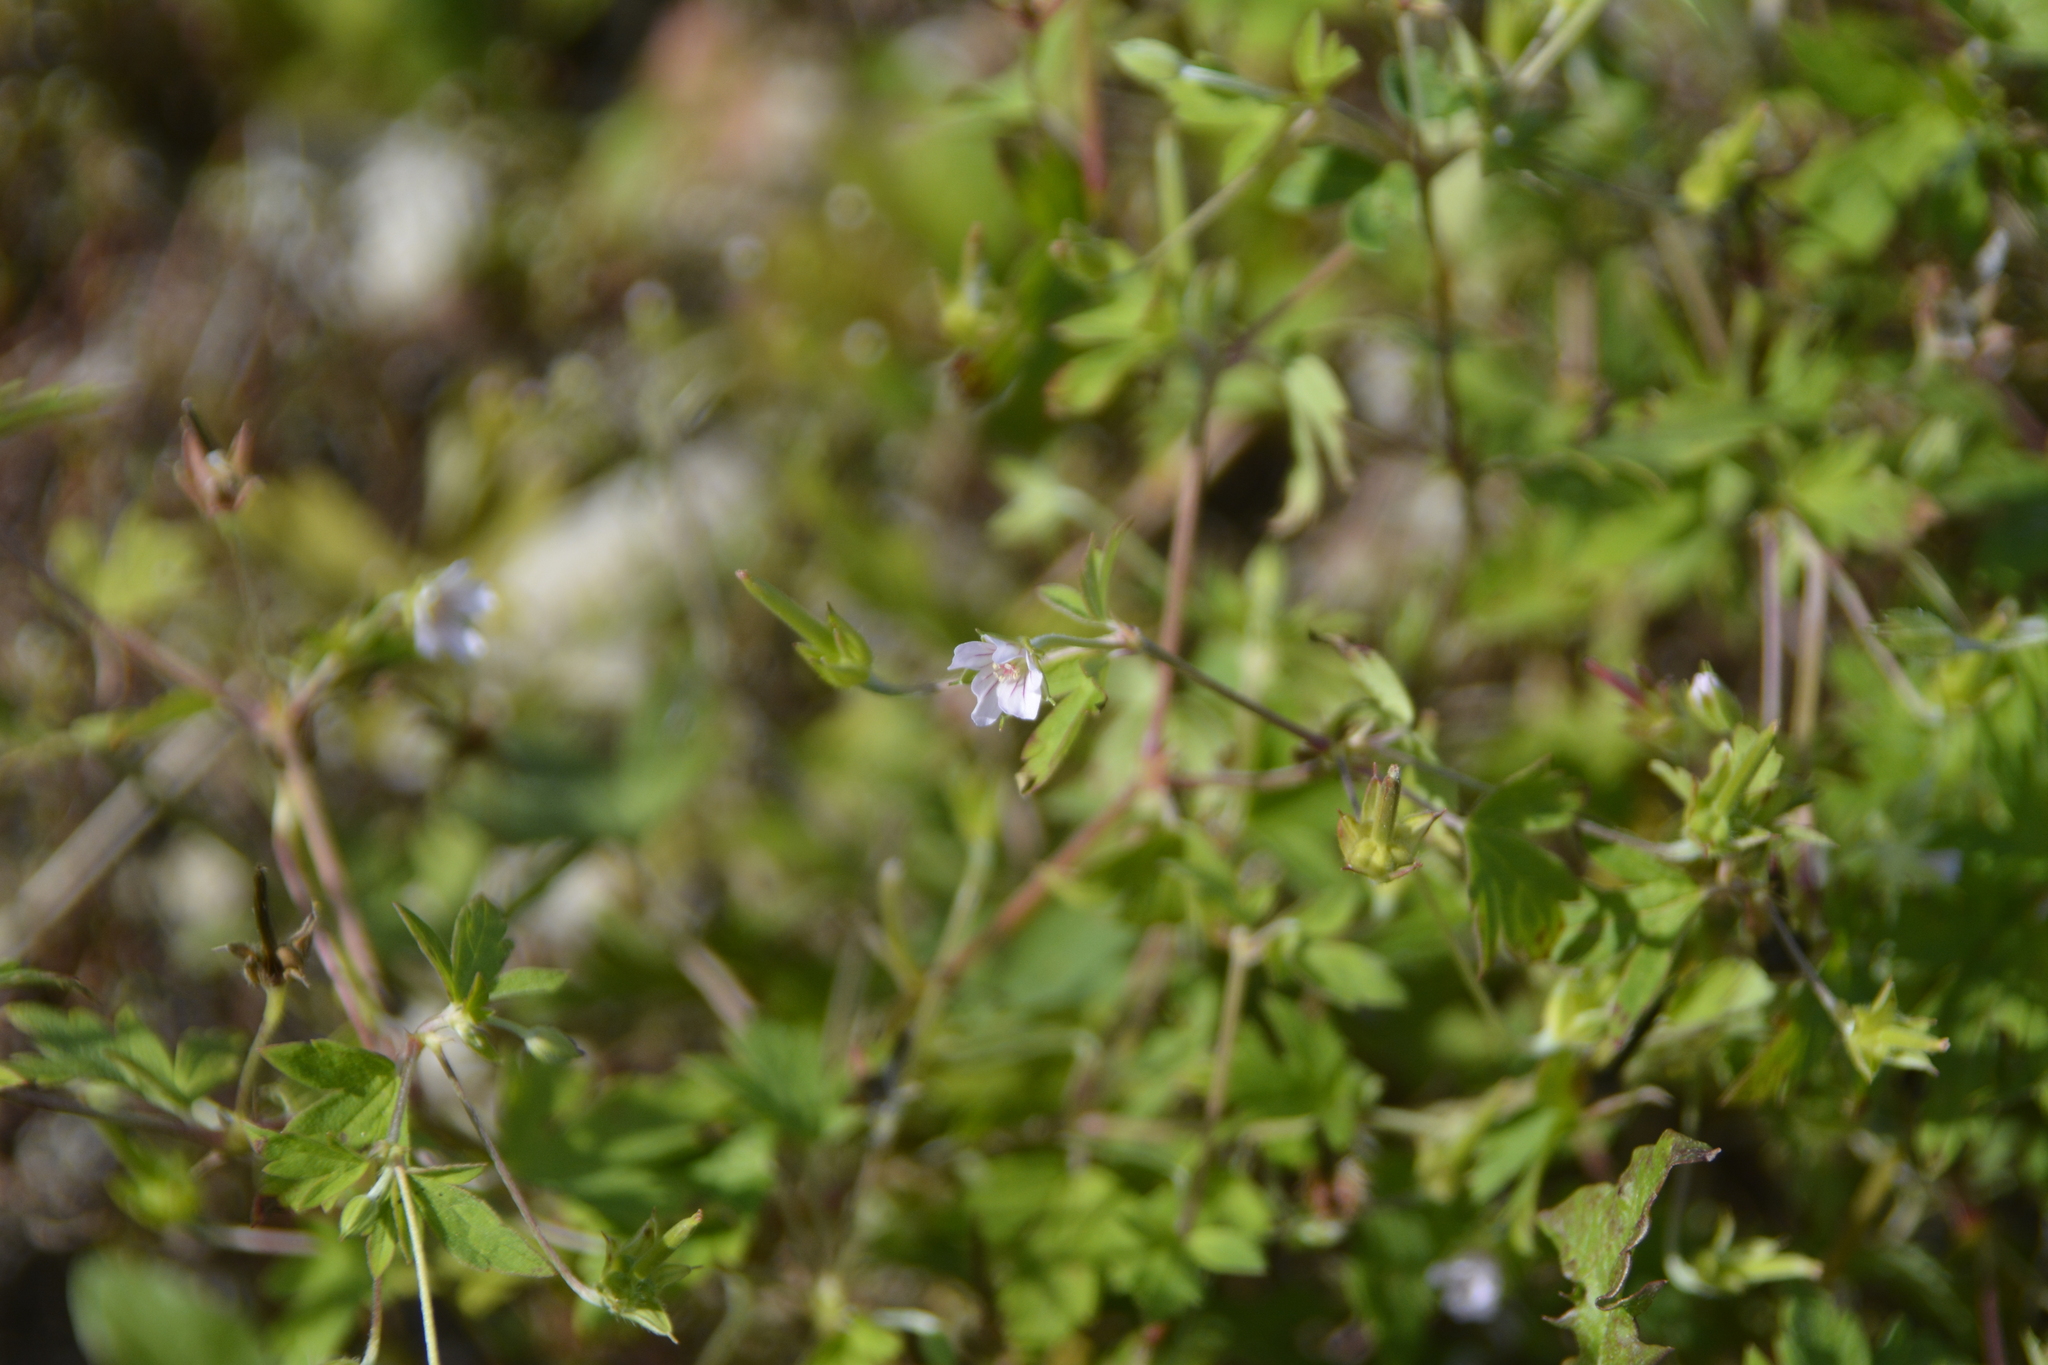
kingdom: Plantae
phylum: Tracheophyta
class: Magnoliopsida
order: Geraniales
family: Geraniaceae
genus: Geranium
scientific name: Geranium sibiricum
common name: Siberian crane's-bill
